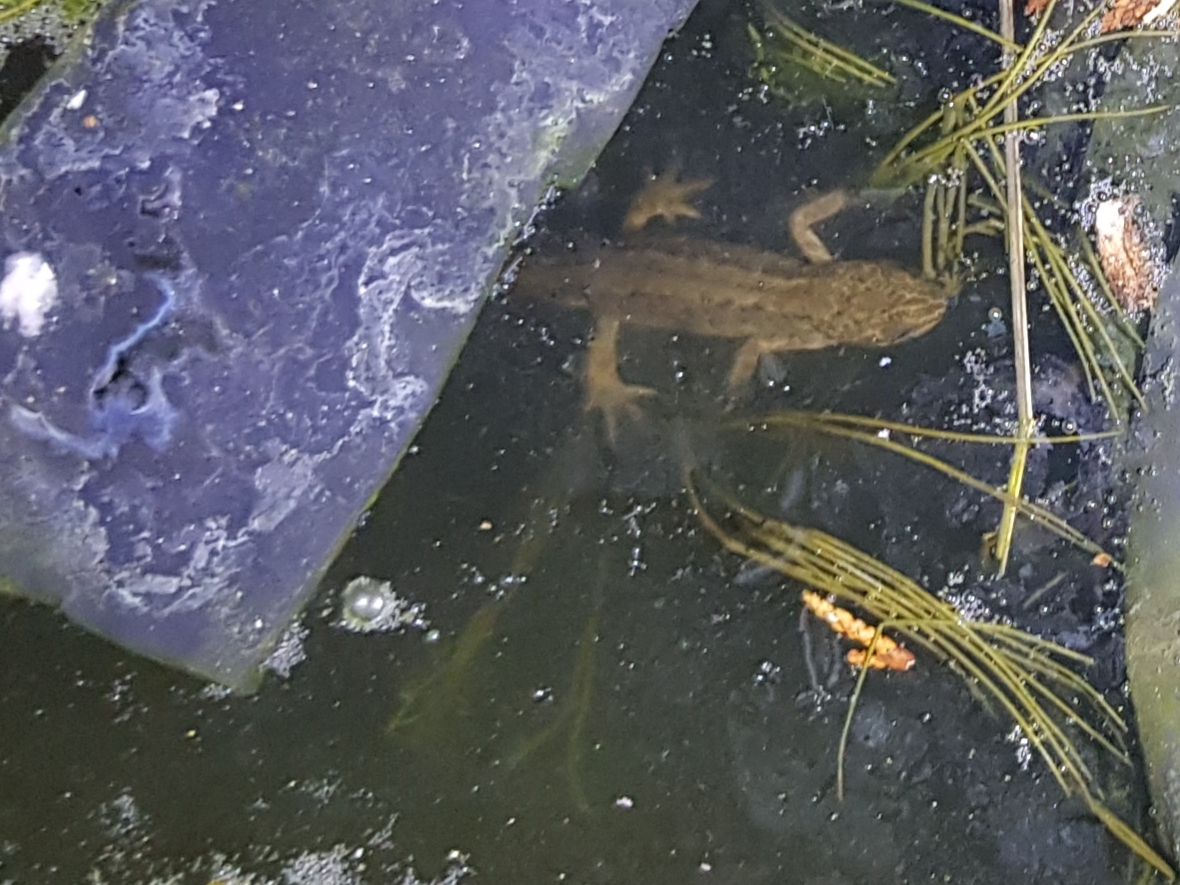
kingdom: Animalia
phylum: Chordata
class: Amphibia
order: Caudata
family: Salamandridae
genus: Lissotriton
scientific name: Lissotriton vulgaris
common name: Smooth newt
